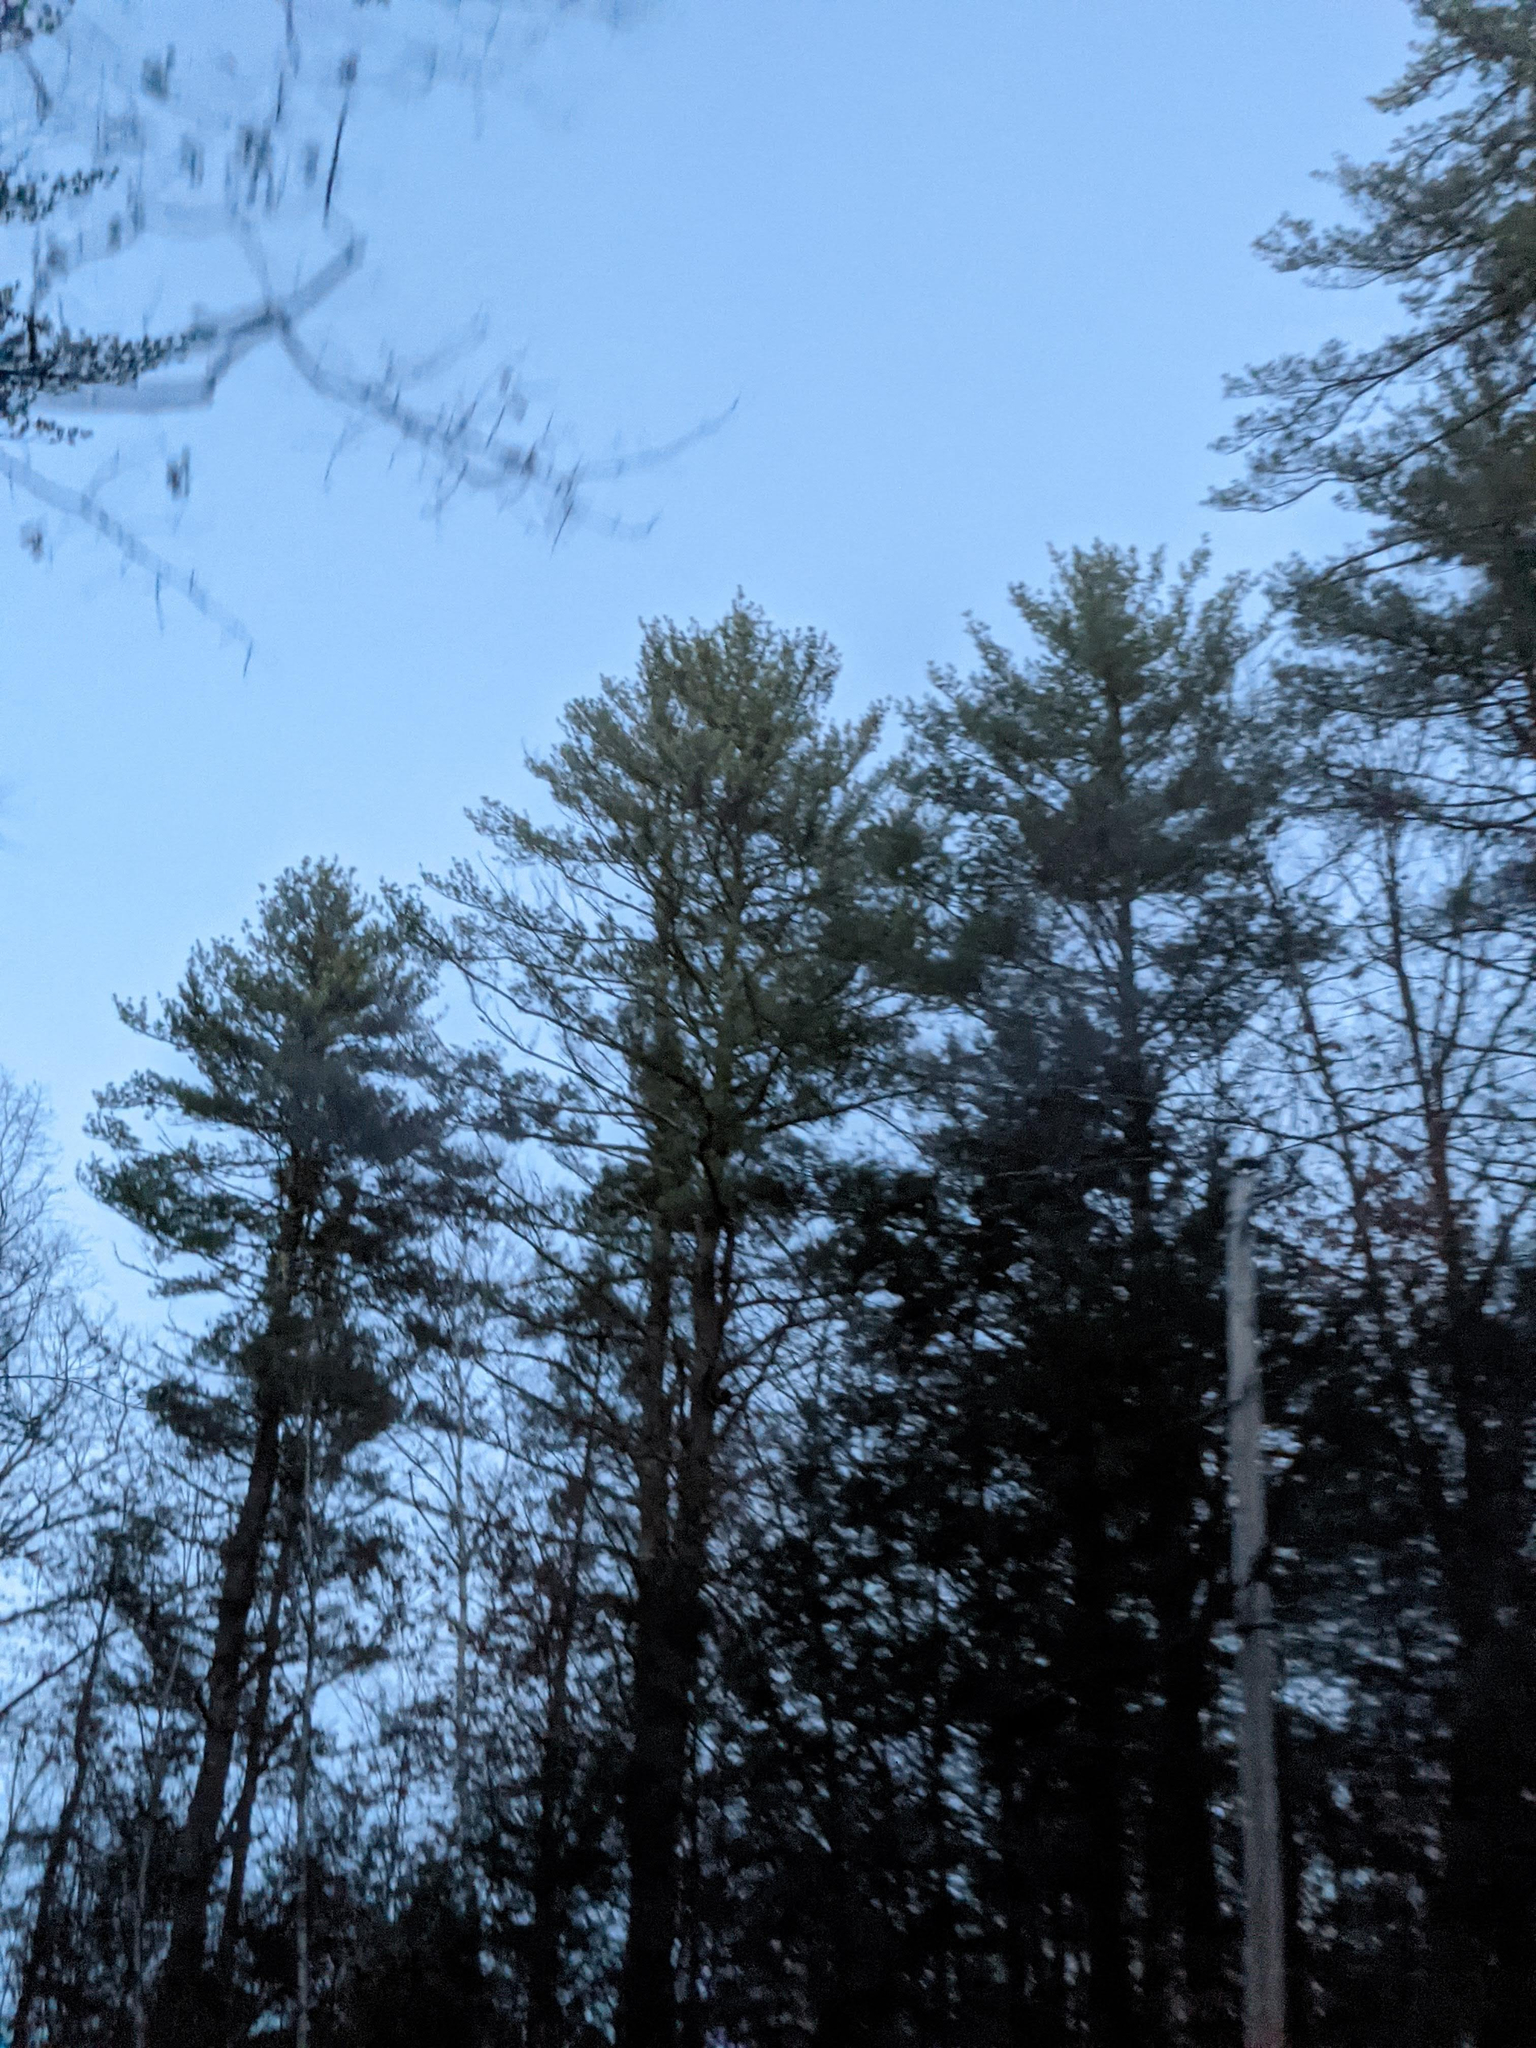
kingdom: Plantae
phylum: Tracheophyta
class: Pinopsida
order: Pinales
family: Pinaceae
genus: Pinus
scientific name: Pinus strobus
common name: Weymouth pine
